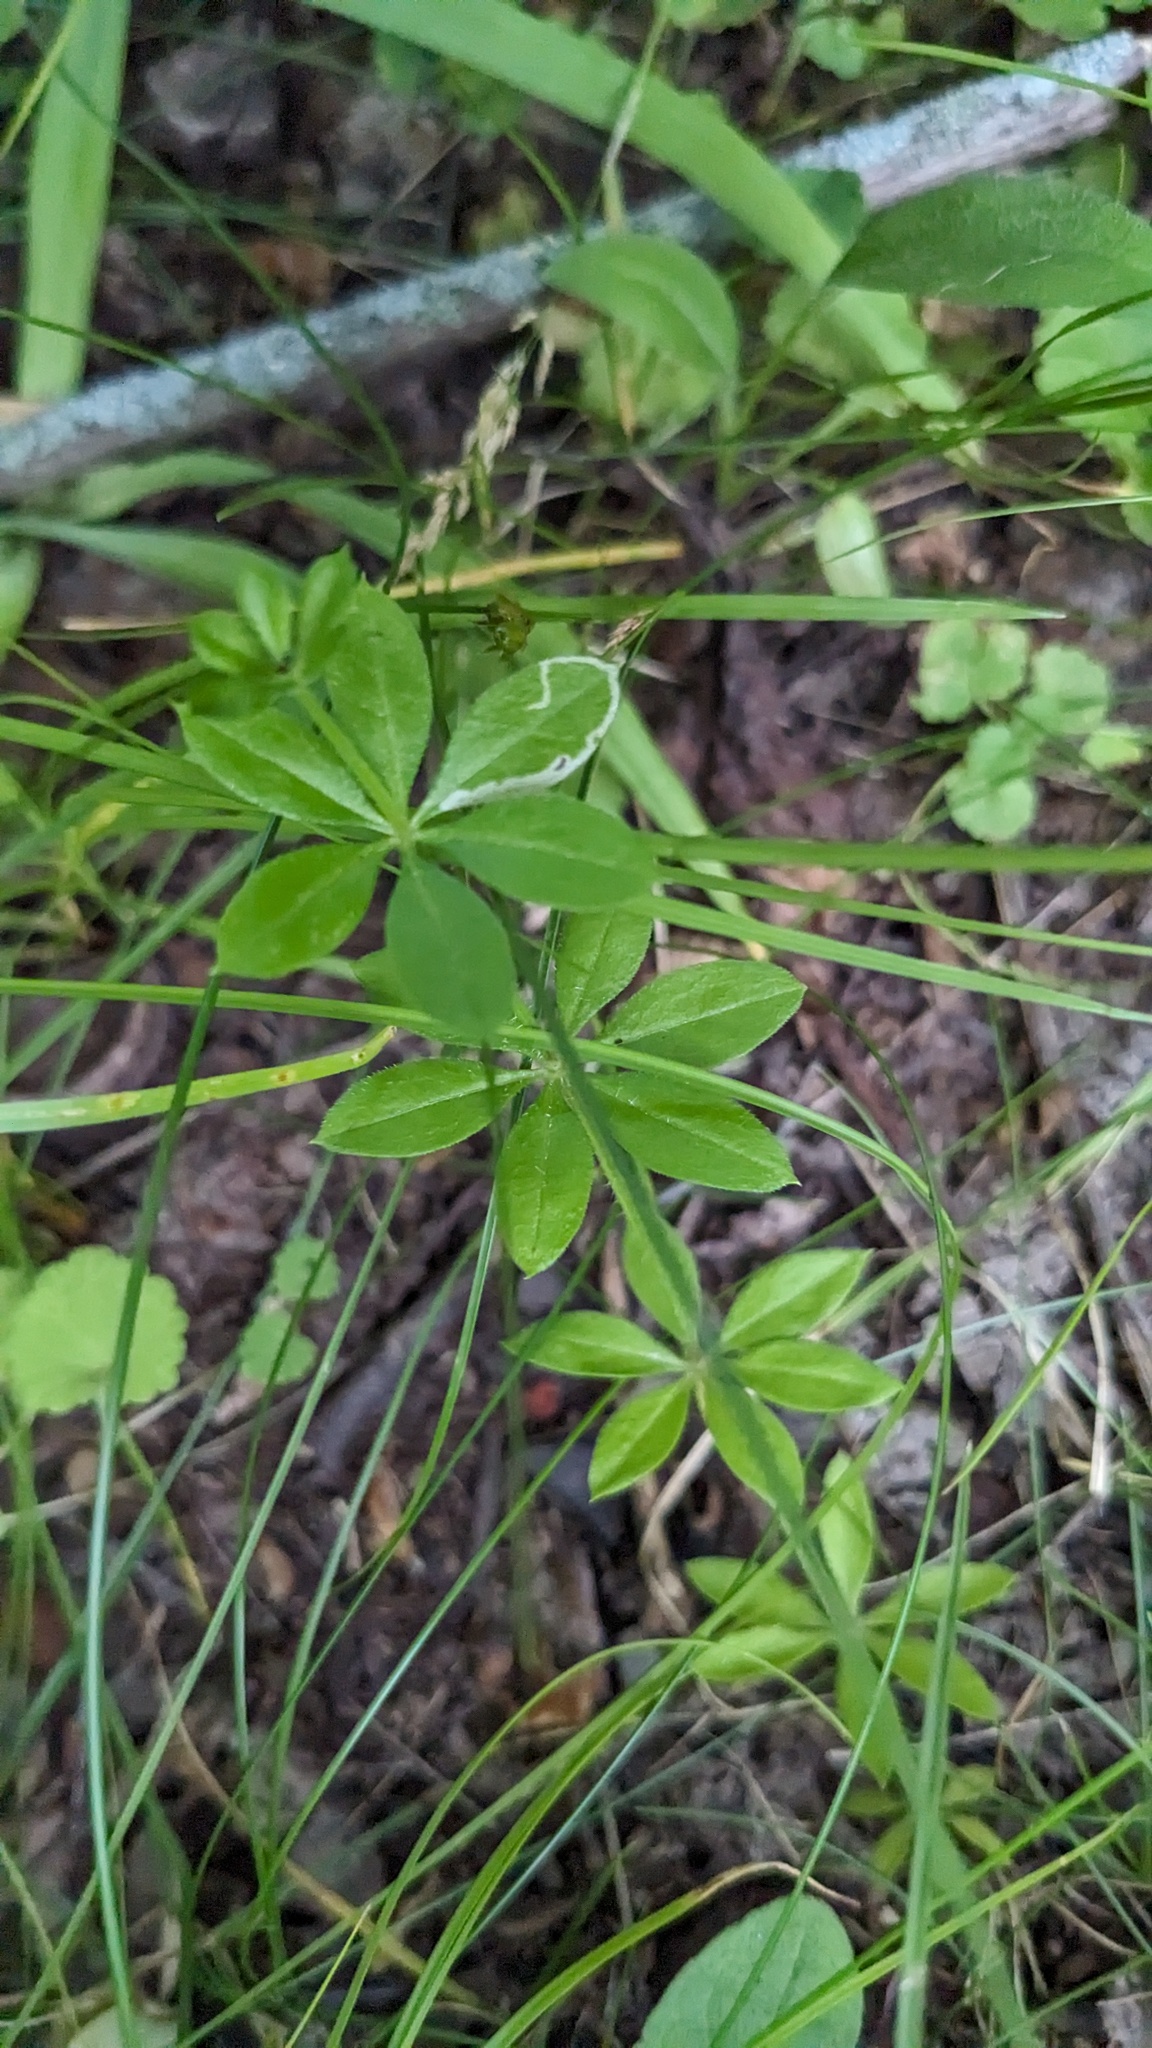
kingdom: Plantae
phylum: Tracheophyta
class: Magnoliopsida
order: Gentianales
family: Rubiaceae
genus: Galium
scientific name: Galium triflorum
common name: Fragrant bedstraw
